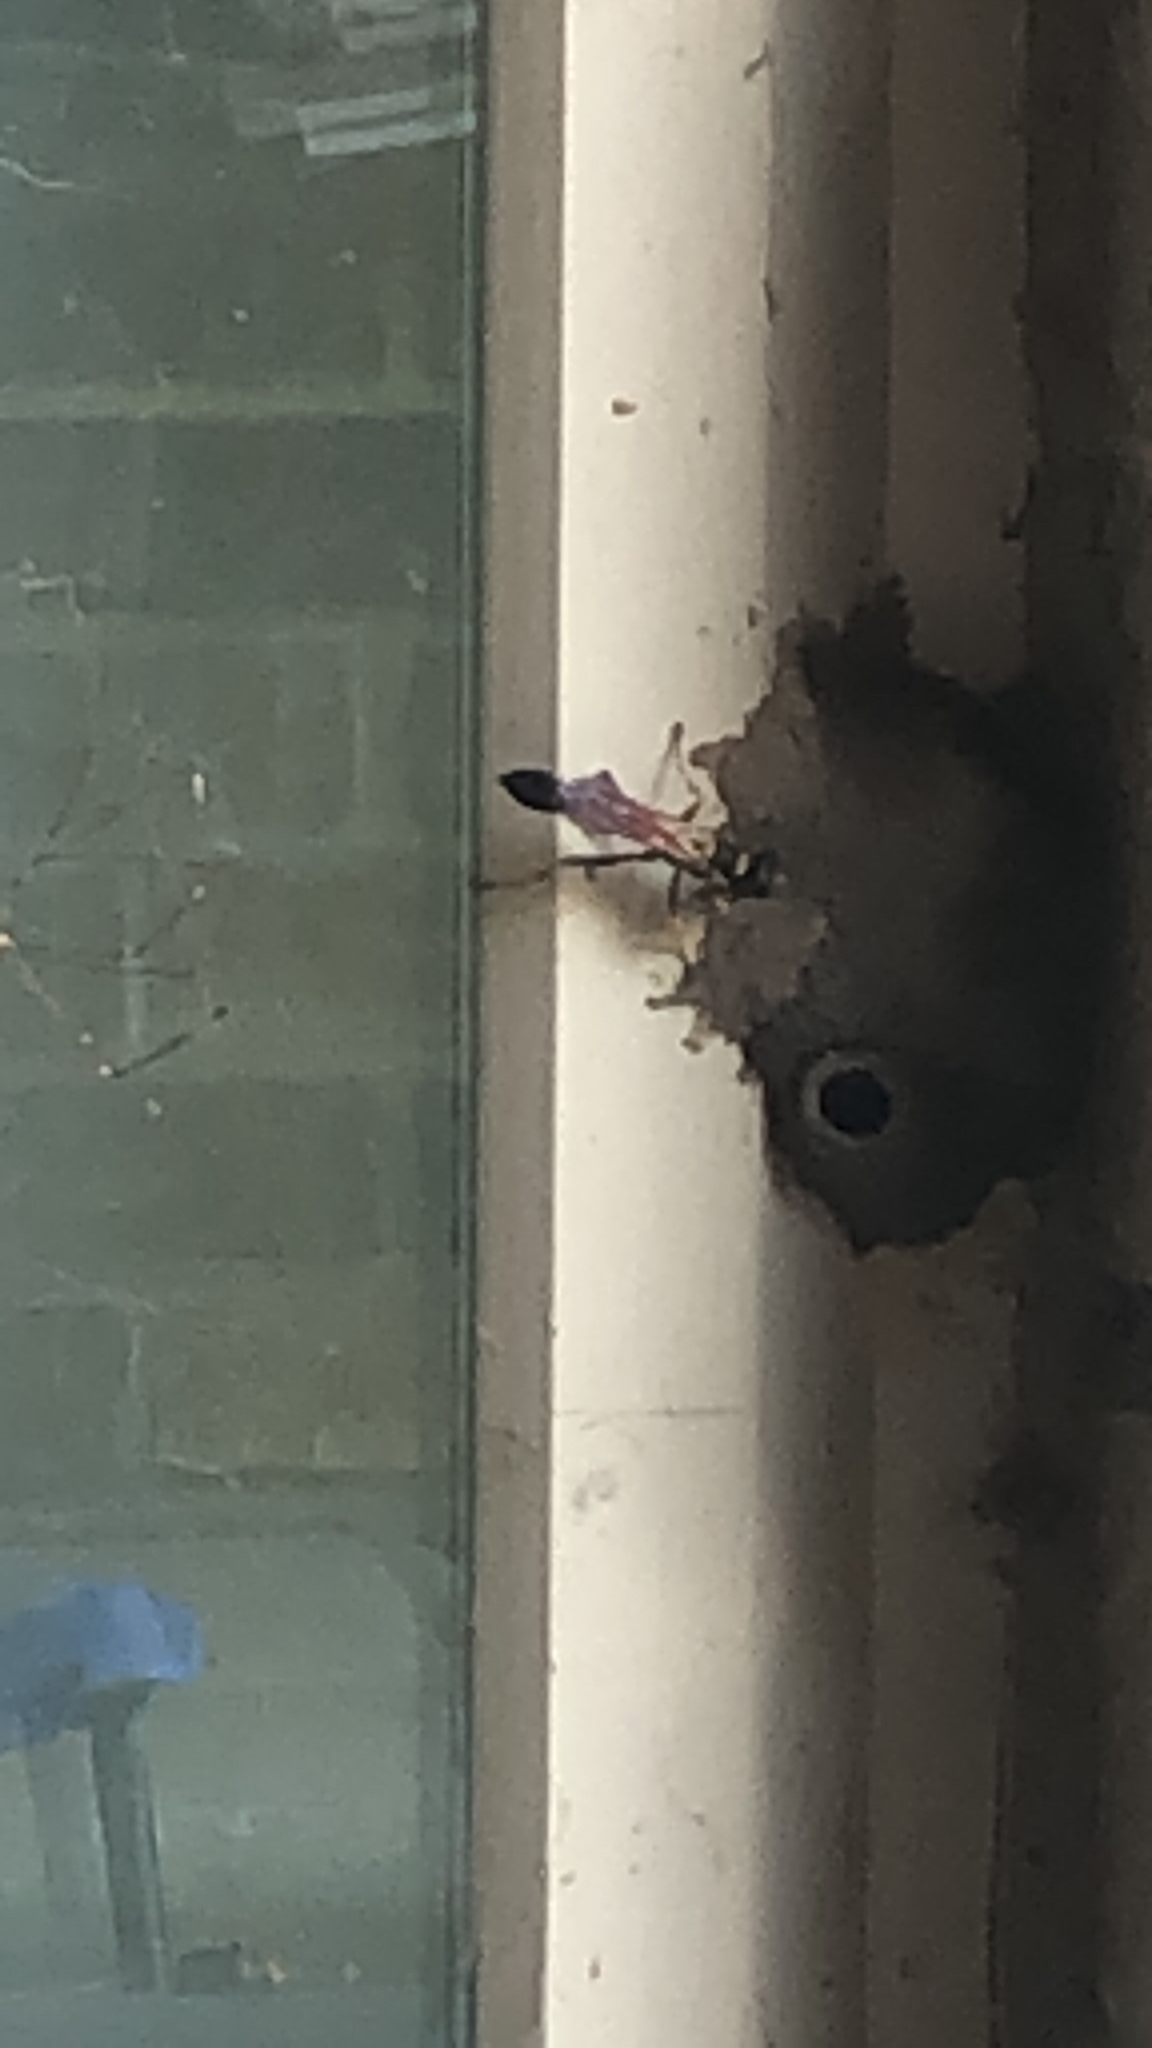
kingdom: Animalia
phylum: Arthropoda
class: Insecta
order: Hymenoptera
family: Sphecidae
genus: Sceliphron
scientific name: Sceliphron caementarium
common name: Mud dauber
